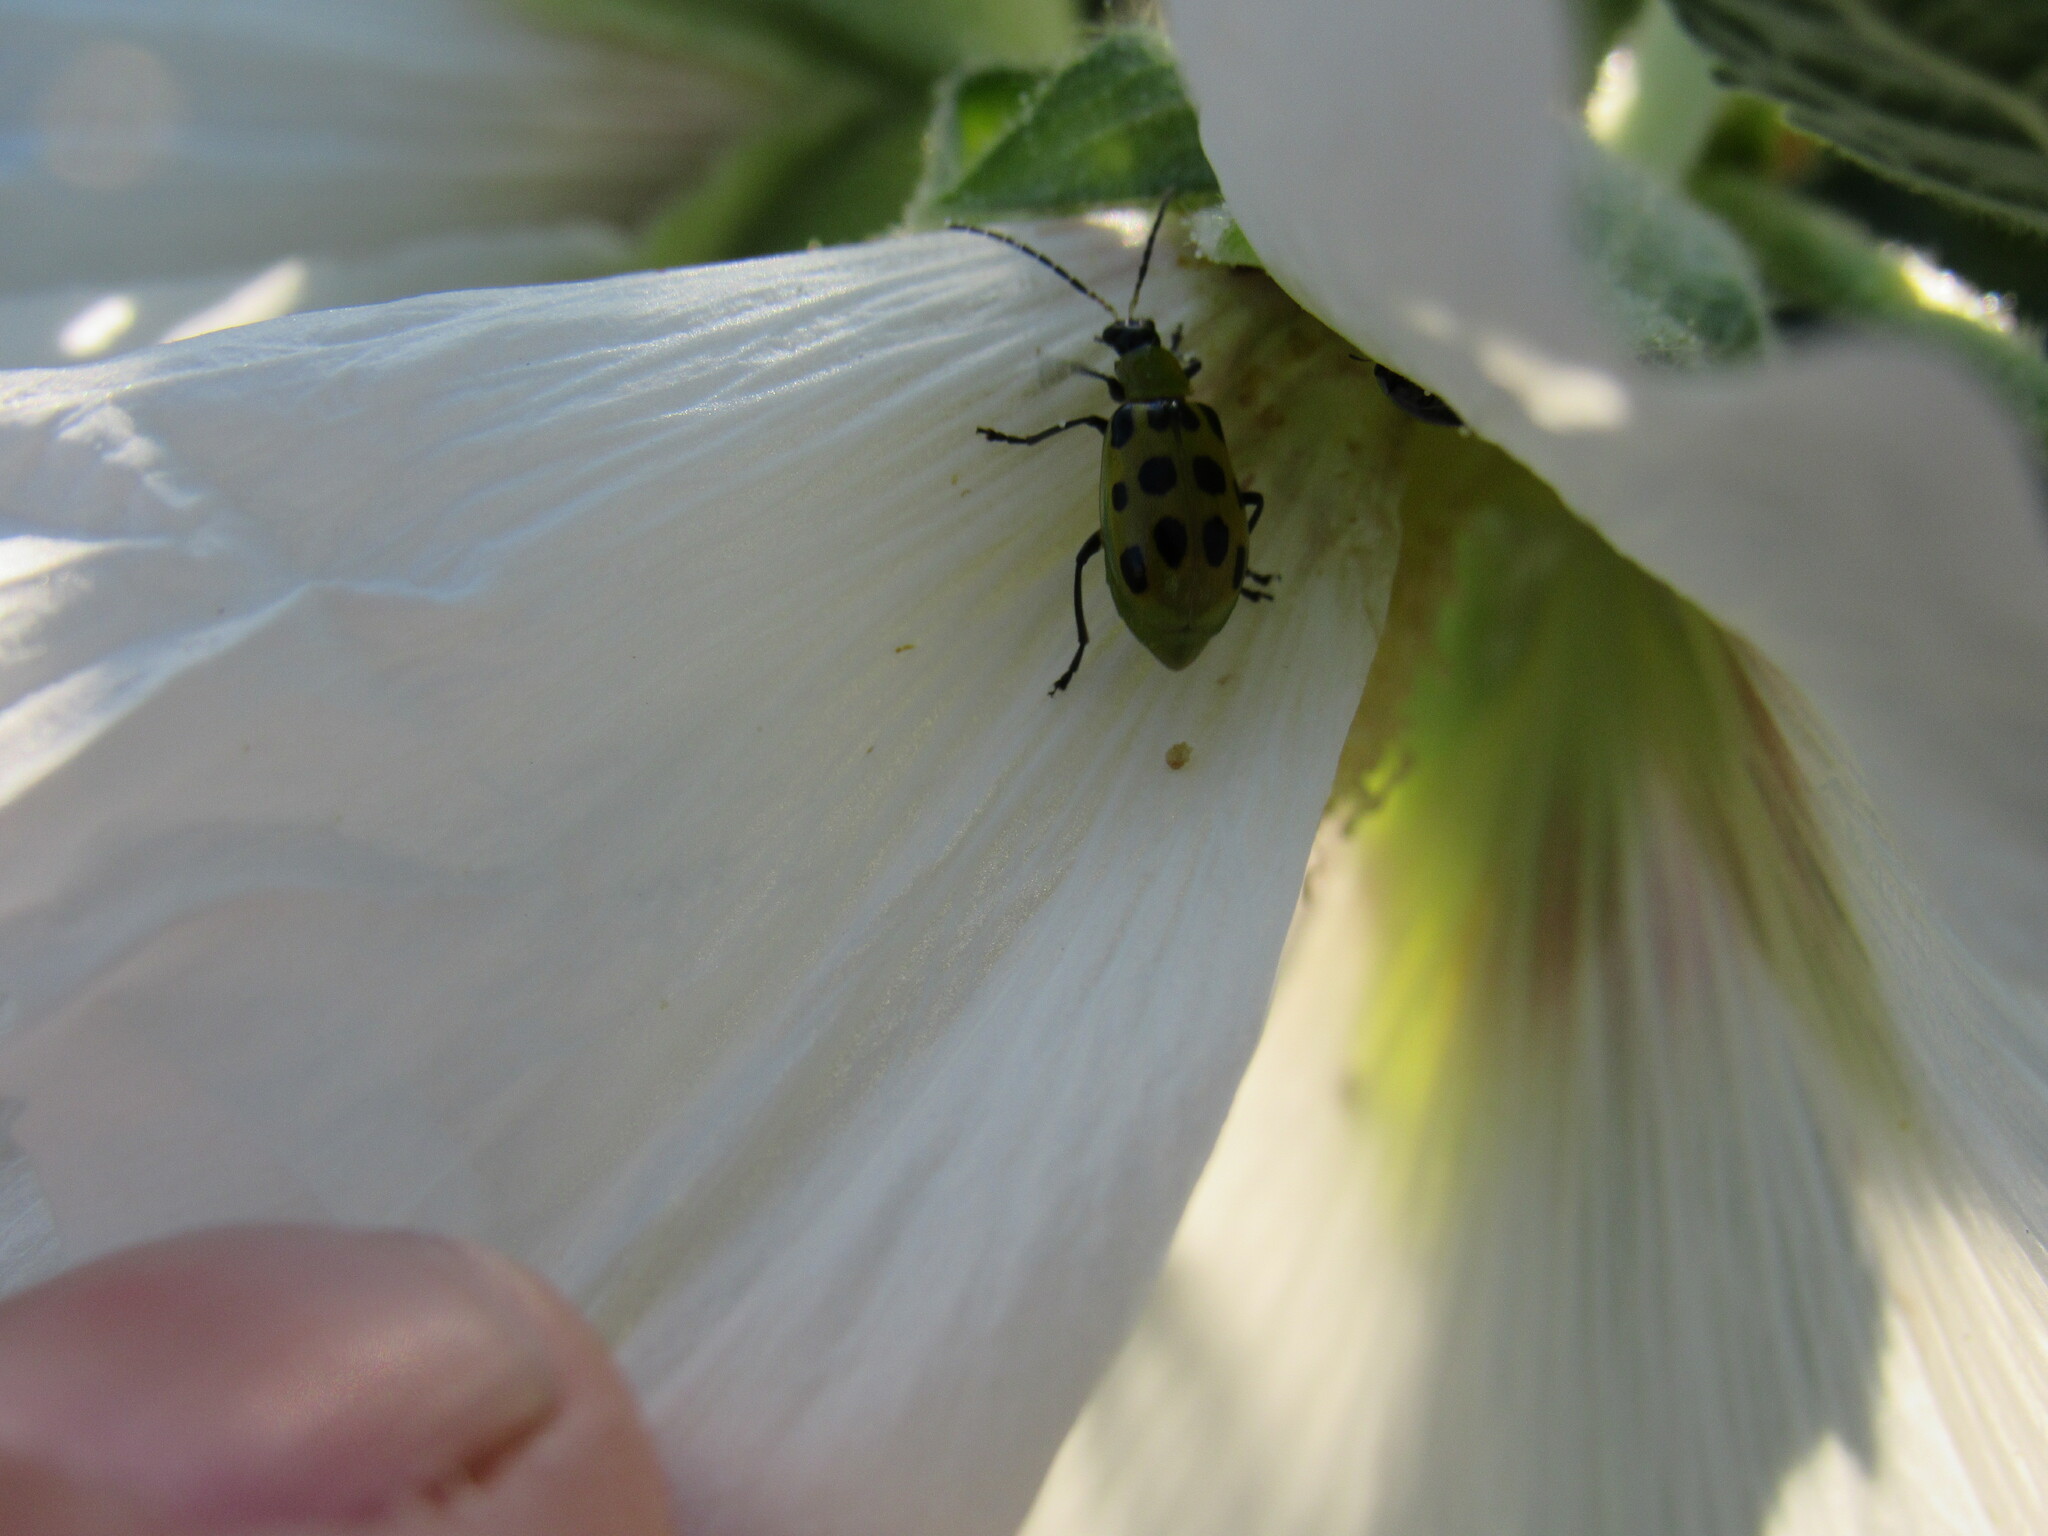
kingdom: Animalia
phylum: Arthropoda
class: Insecta
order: Coleoptera
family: Chrysomelidae
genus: Diabrotica
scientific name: Diabrotica undecimpunctata
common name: Spotted cucumber beetle
